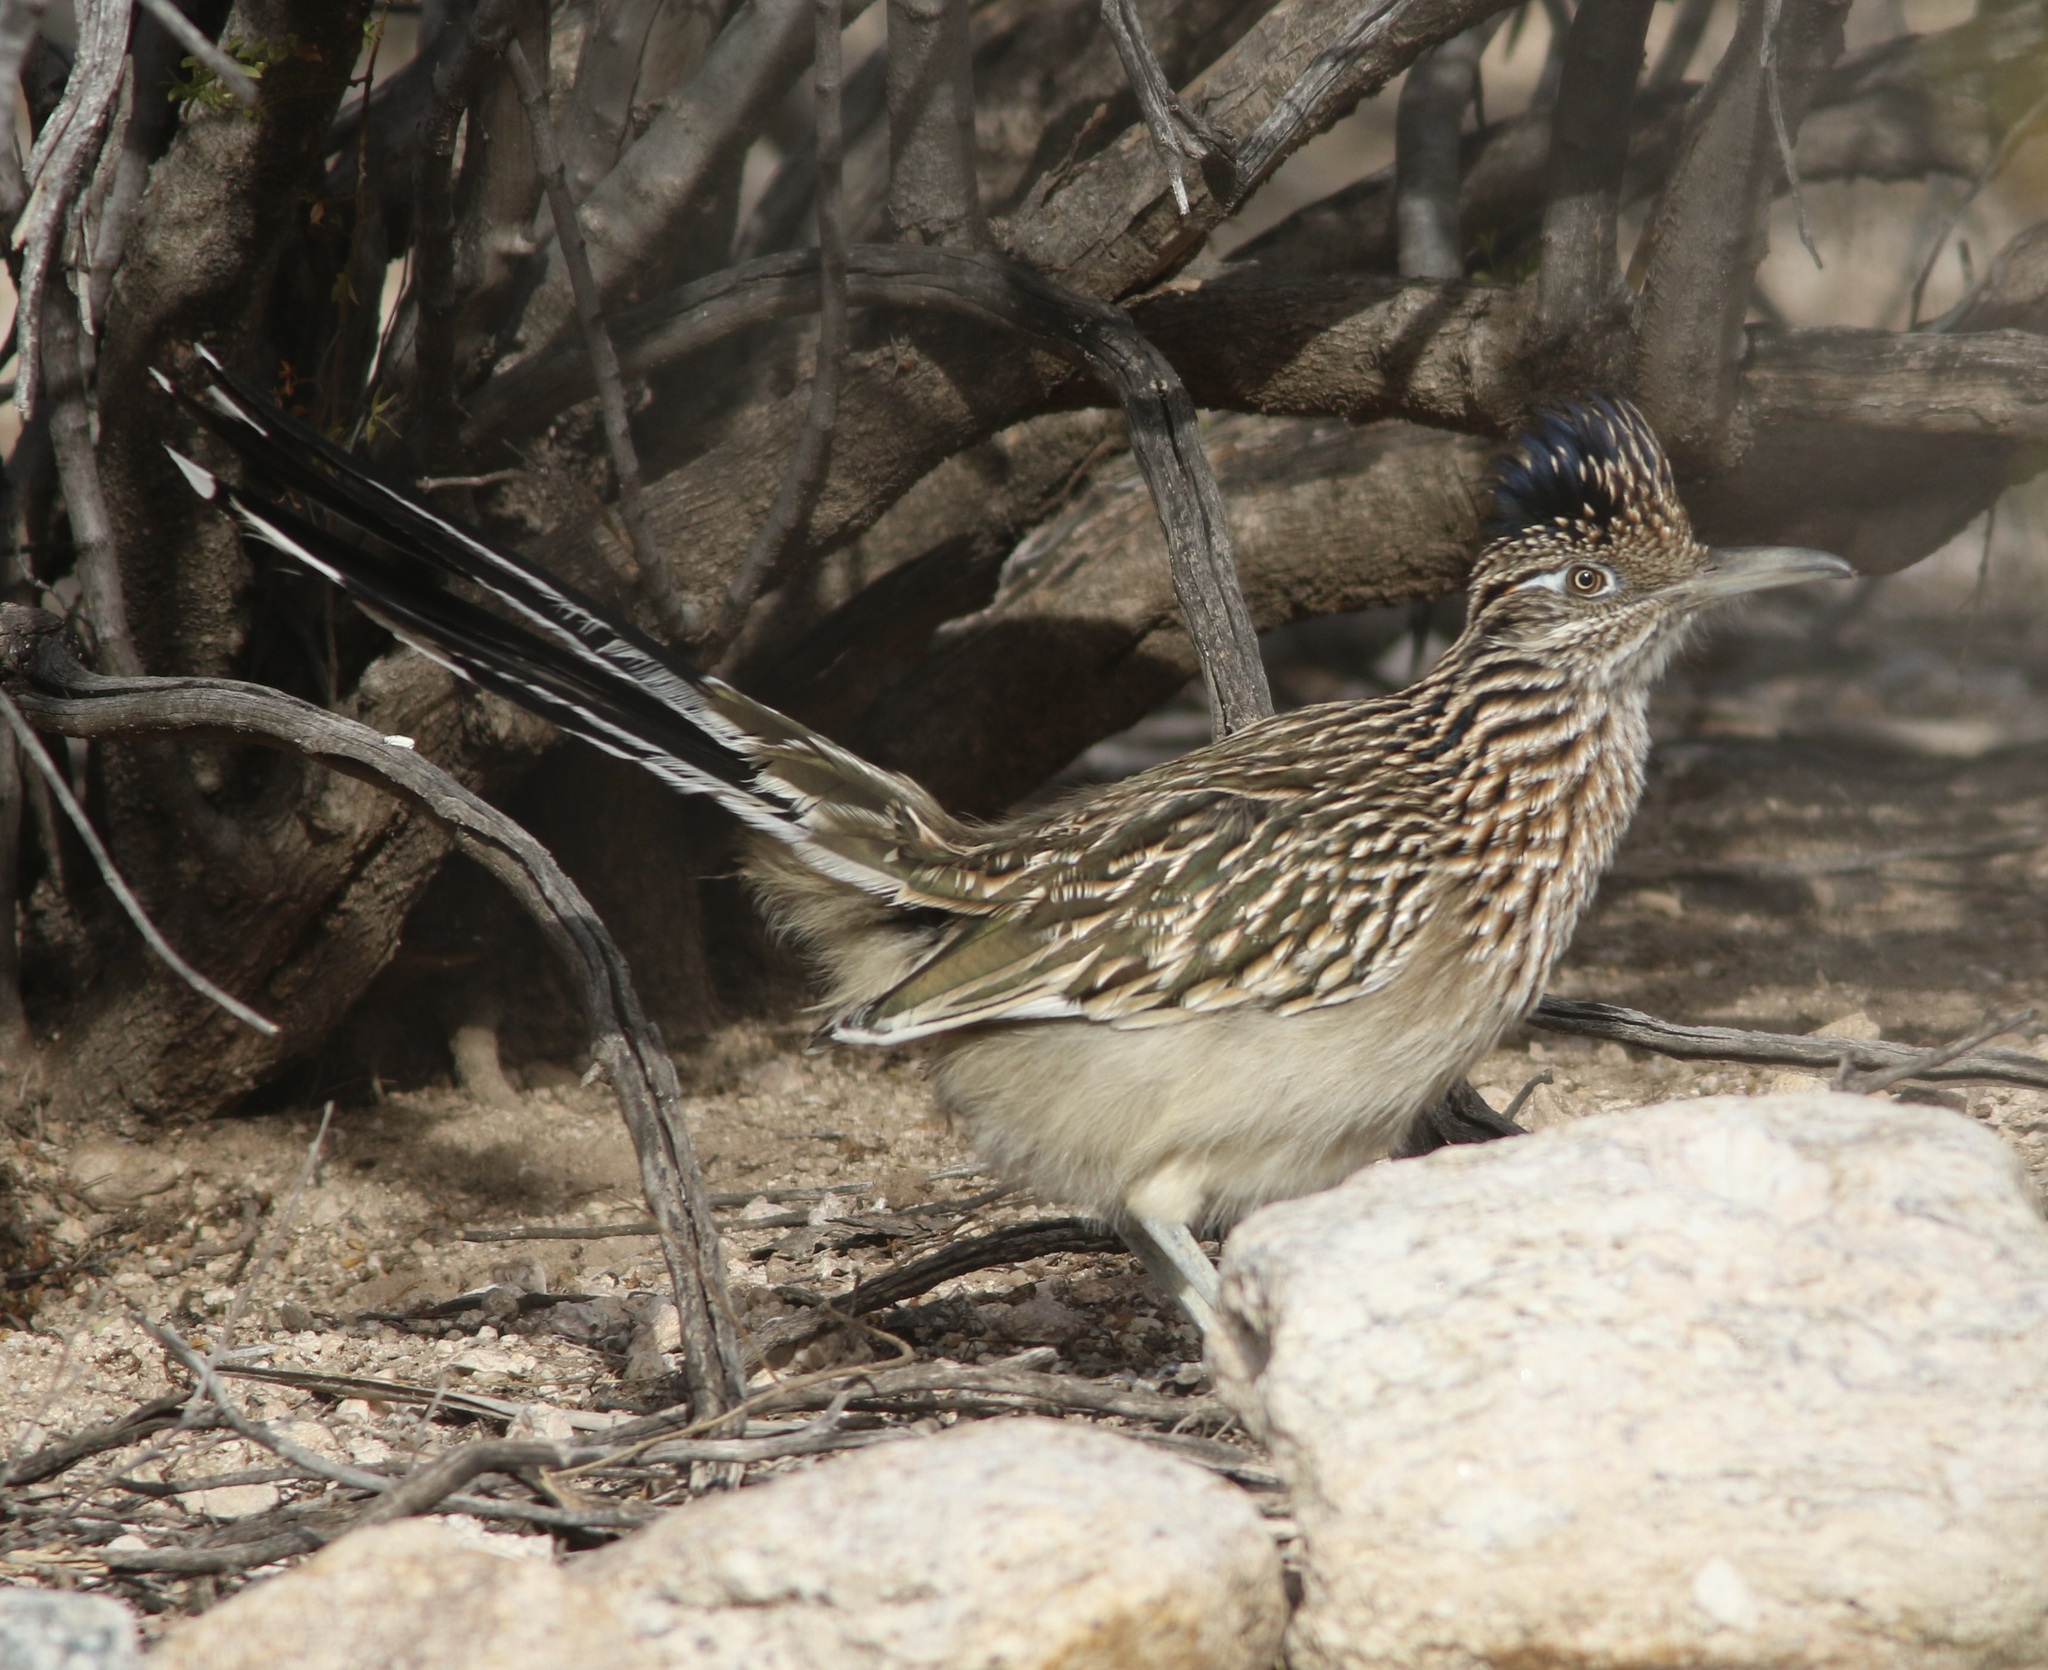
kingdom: Animalia
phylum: Chordata
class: Aves
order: Cuculiformes
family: Cuculidae
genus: Geococcyx
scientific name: Geococcyx californianus
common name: Greater roadrunner
